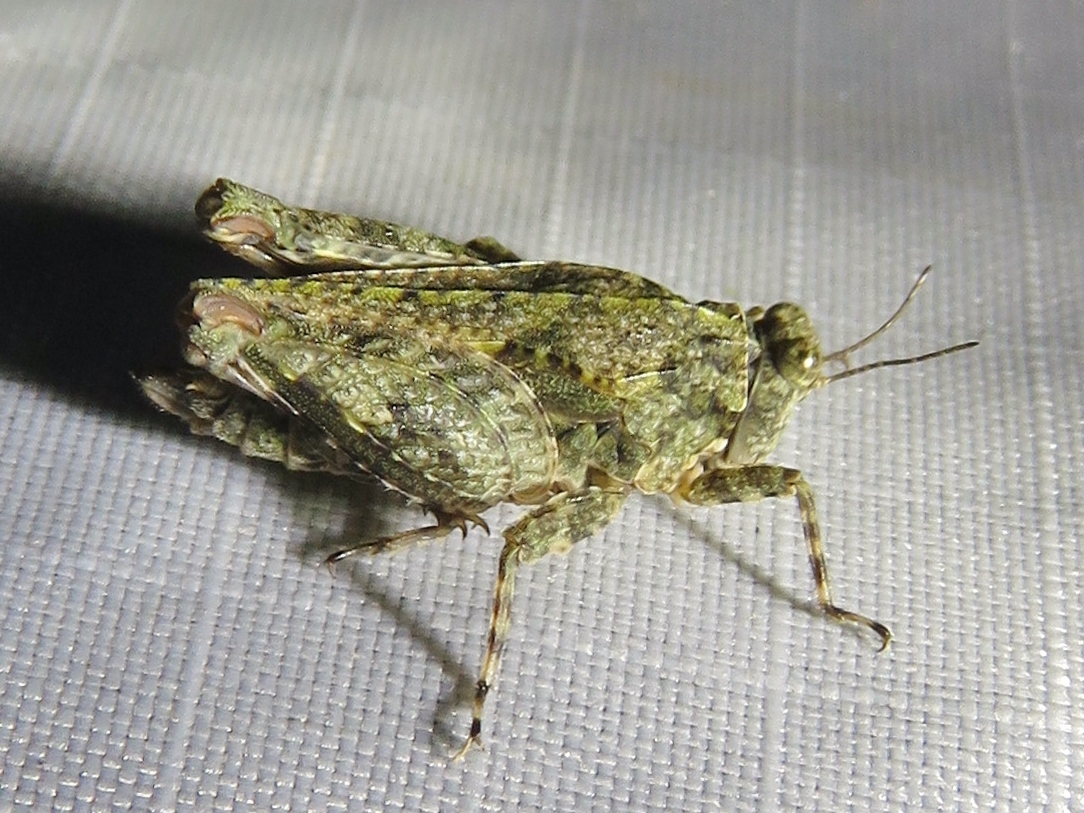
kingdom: Animalia
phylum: Arthropoda
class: Insecta
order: Orthoptera
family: Tetrigidae
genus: Paratettix
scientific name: Paratettix mexicanus
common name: Mexican pygmy grasshopper
